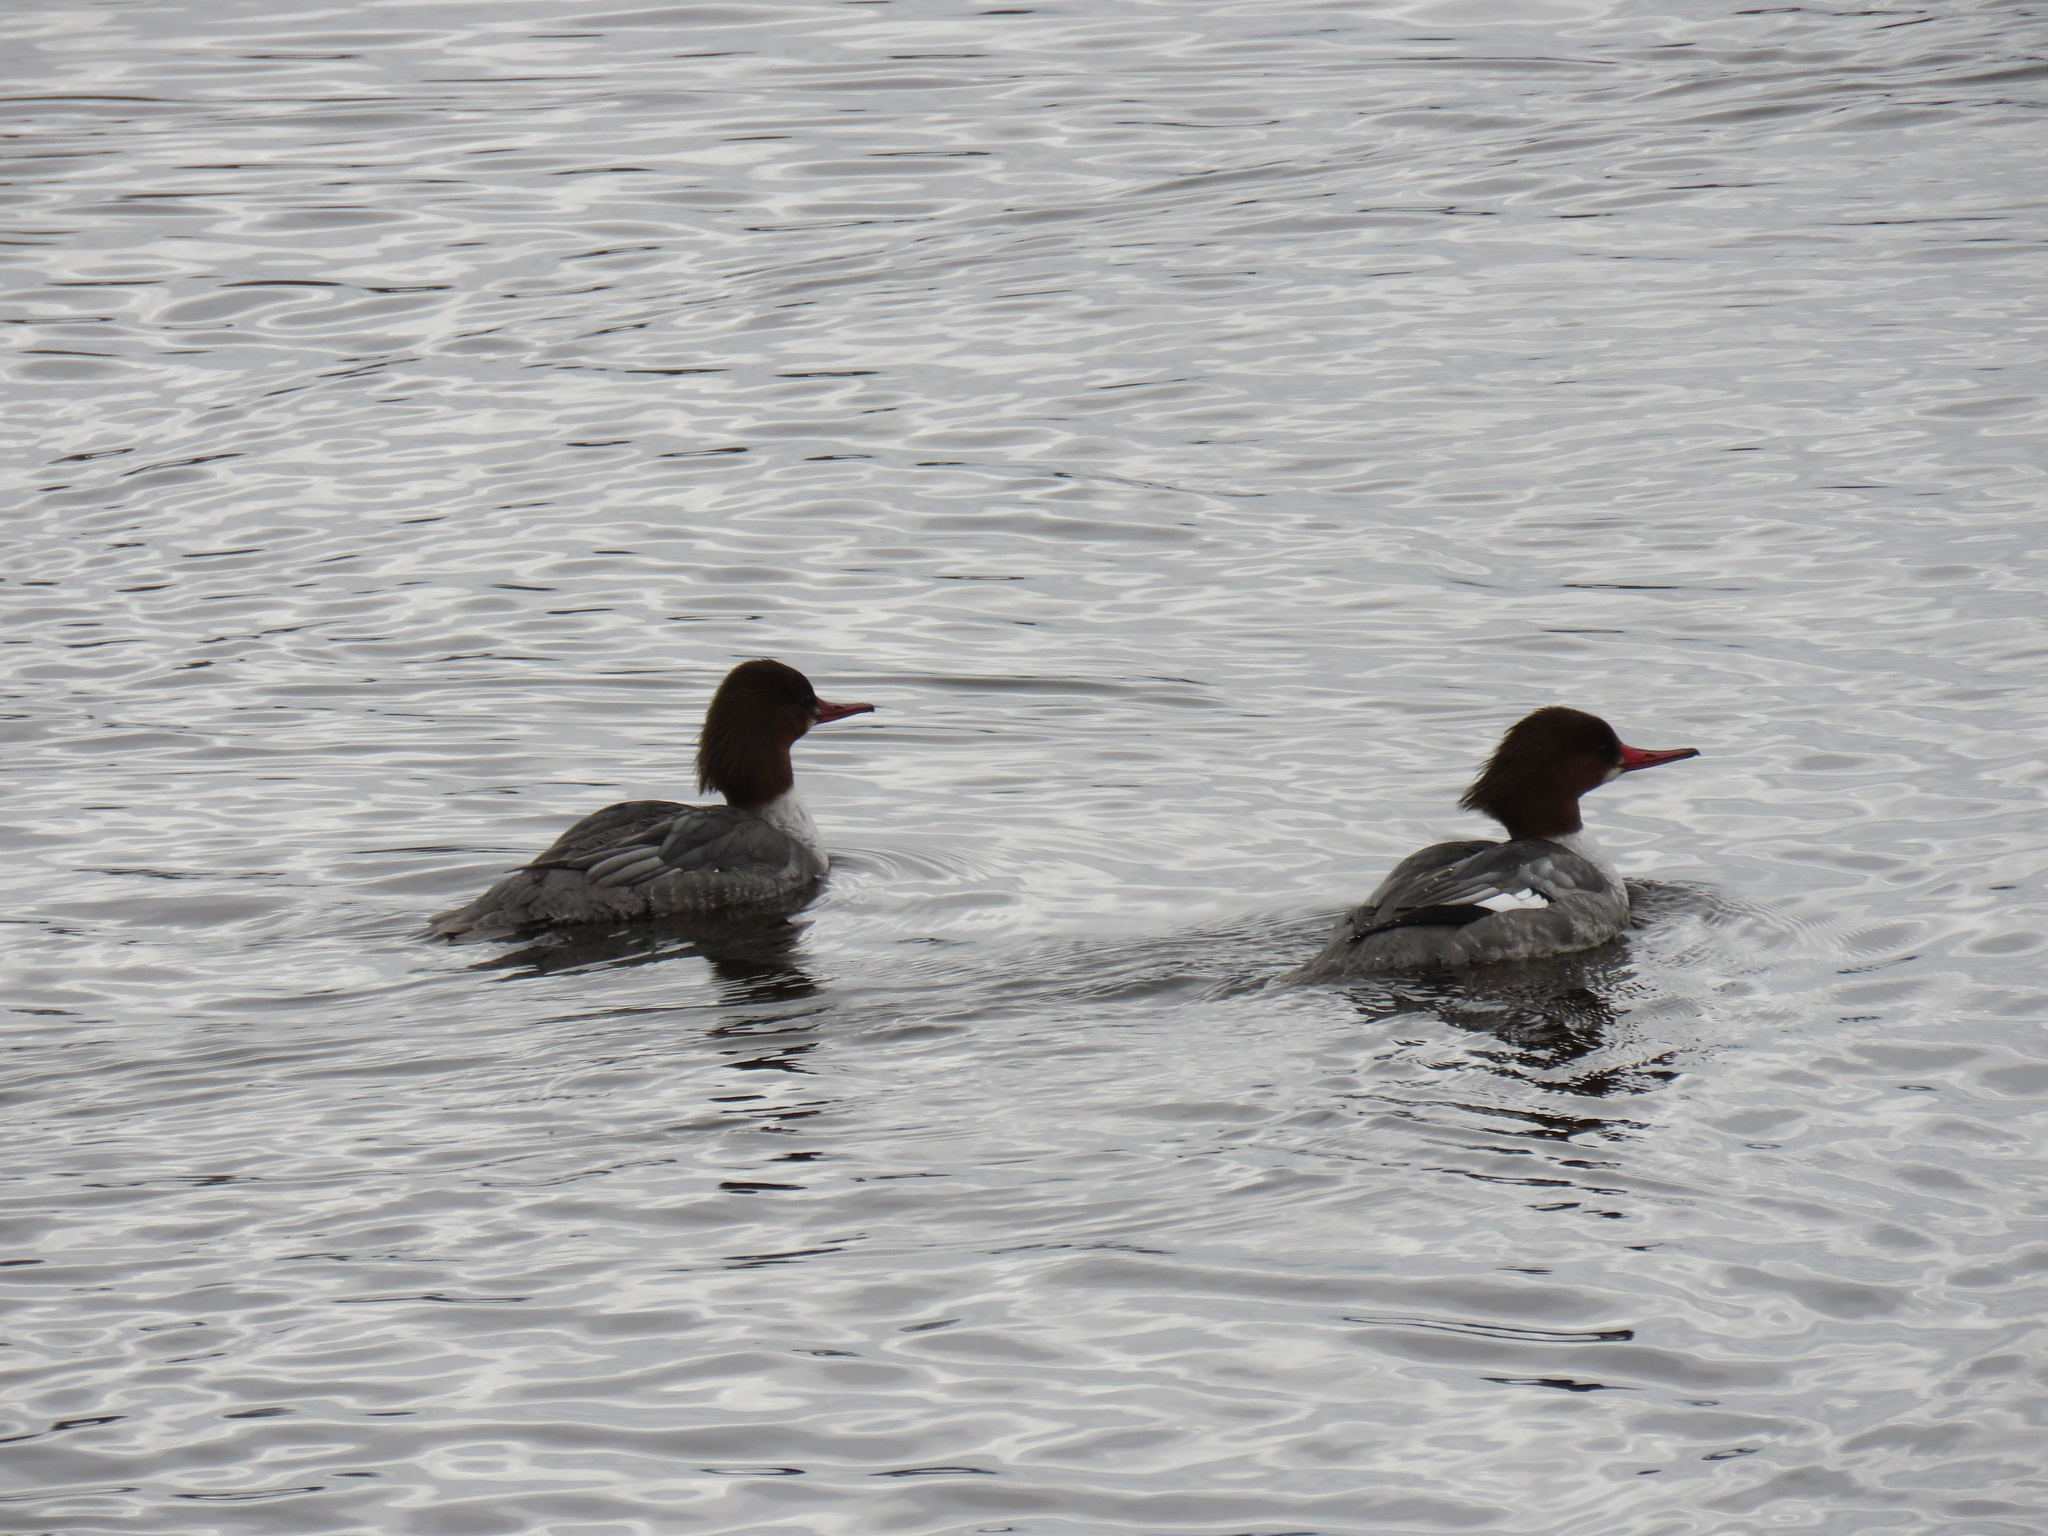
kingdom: Animalia
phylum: Chordata
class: Aves
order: Anseriformes
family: Anatidae
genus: Mergus
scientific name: Mergus merganser
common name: Common merganser
